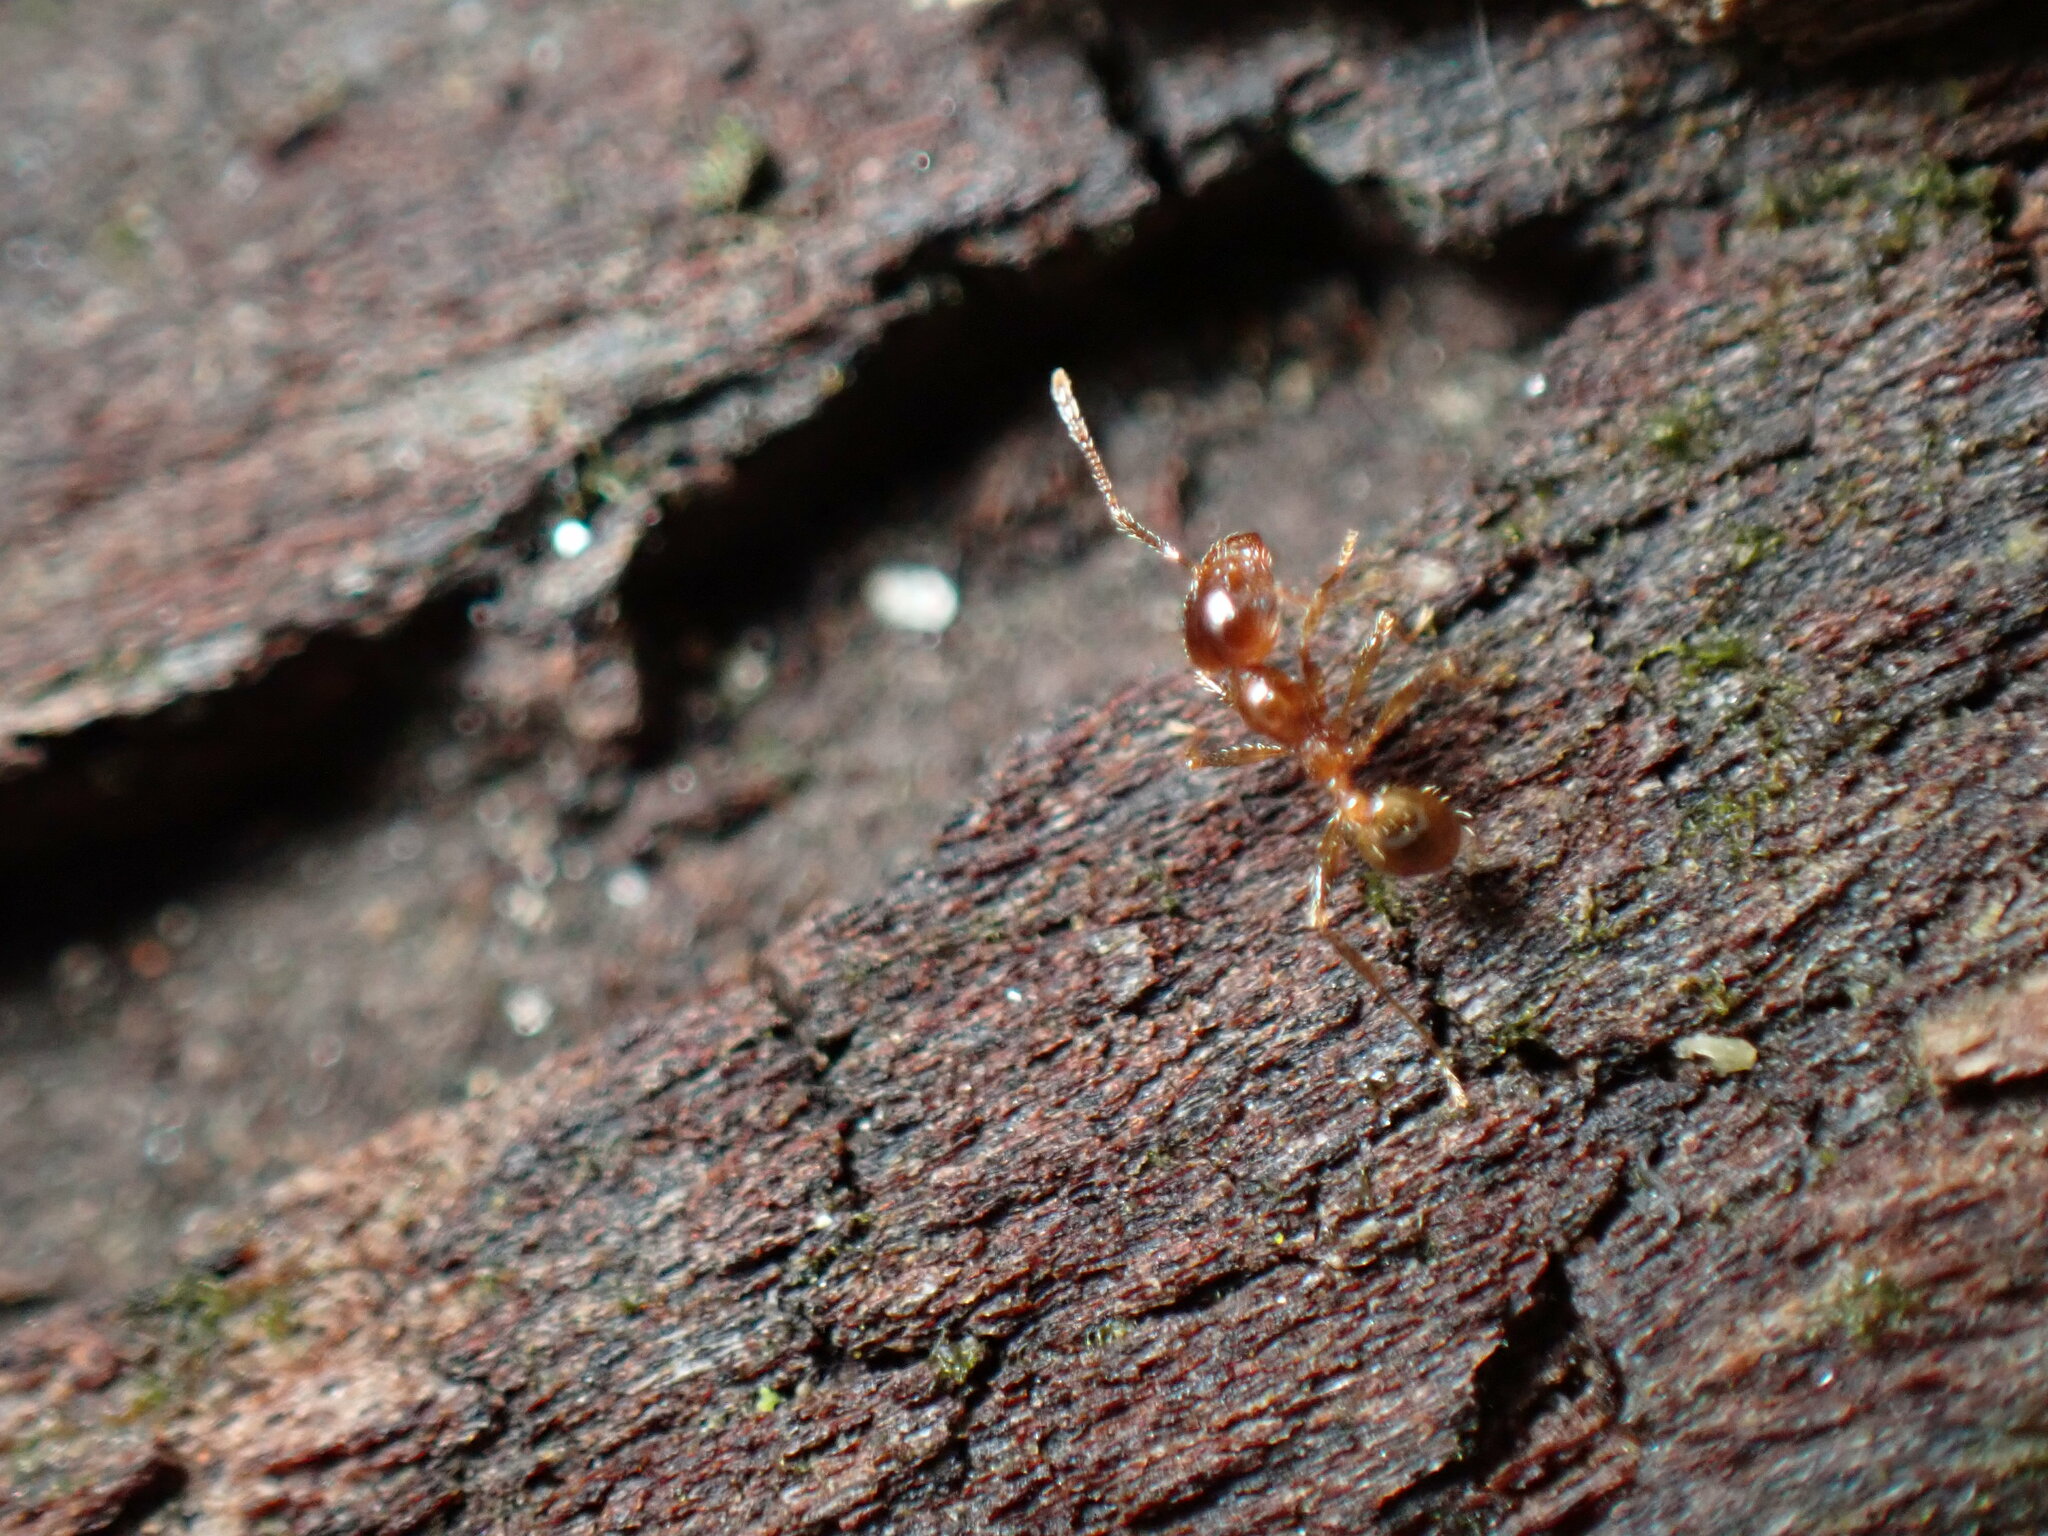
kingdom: Animalia
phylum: Arthropoda
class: Insecta
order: Hymenoptera
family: Formicidae
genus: Pheidole
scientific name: Pheidole pallidula
